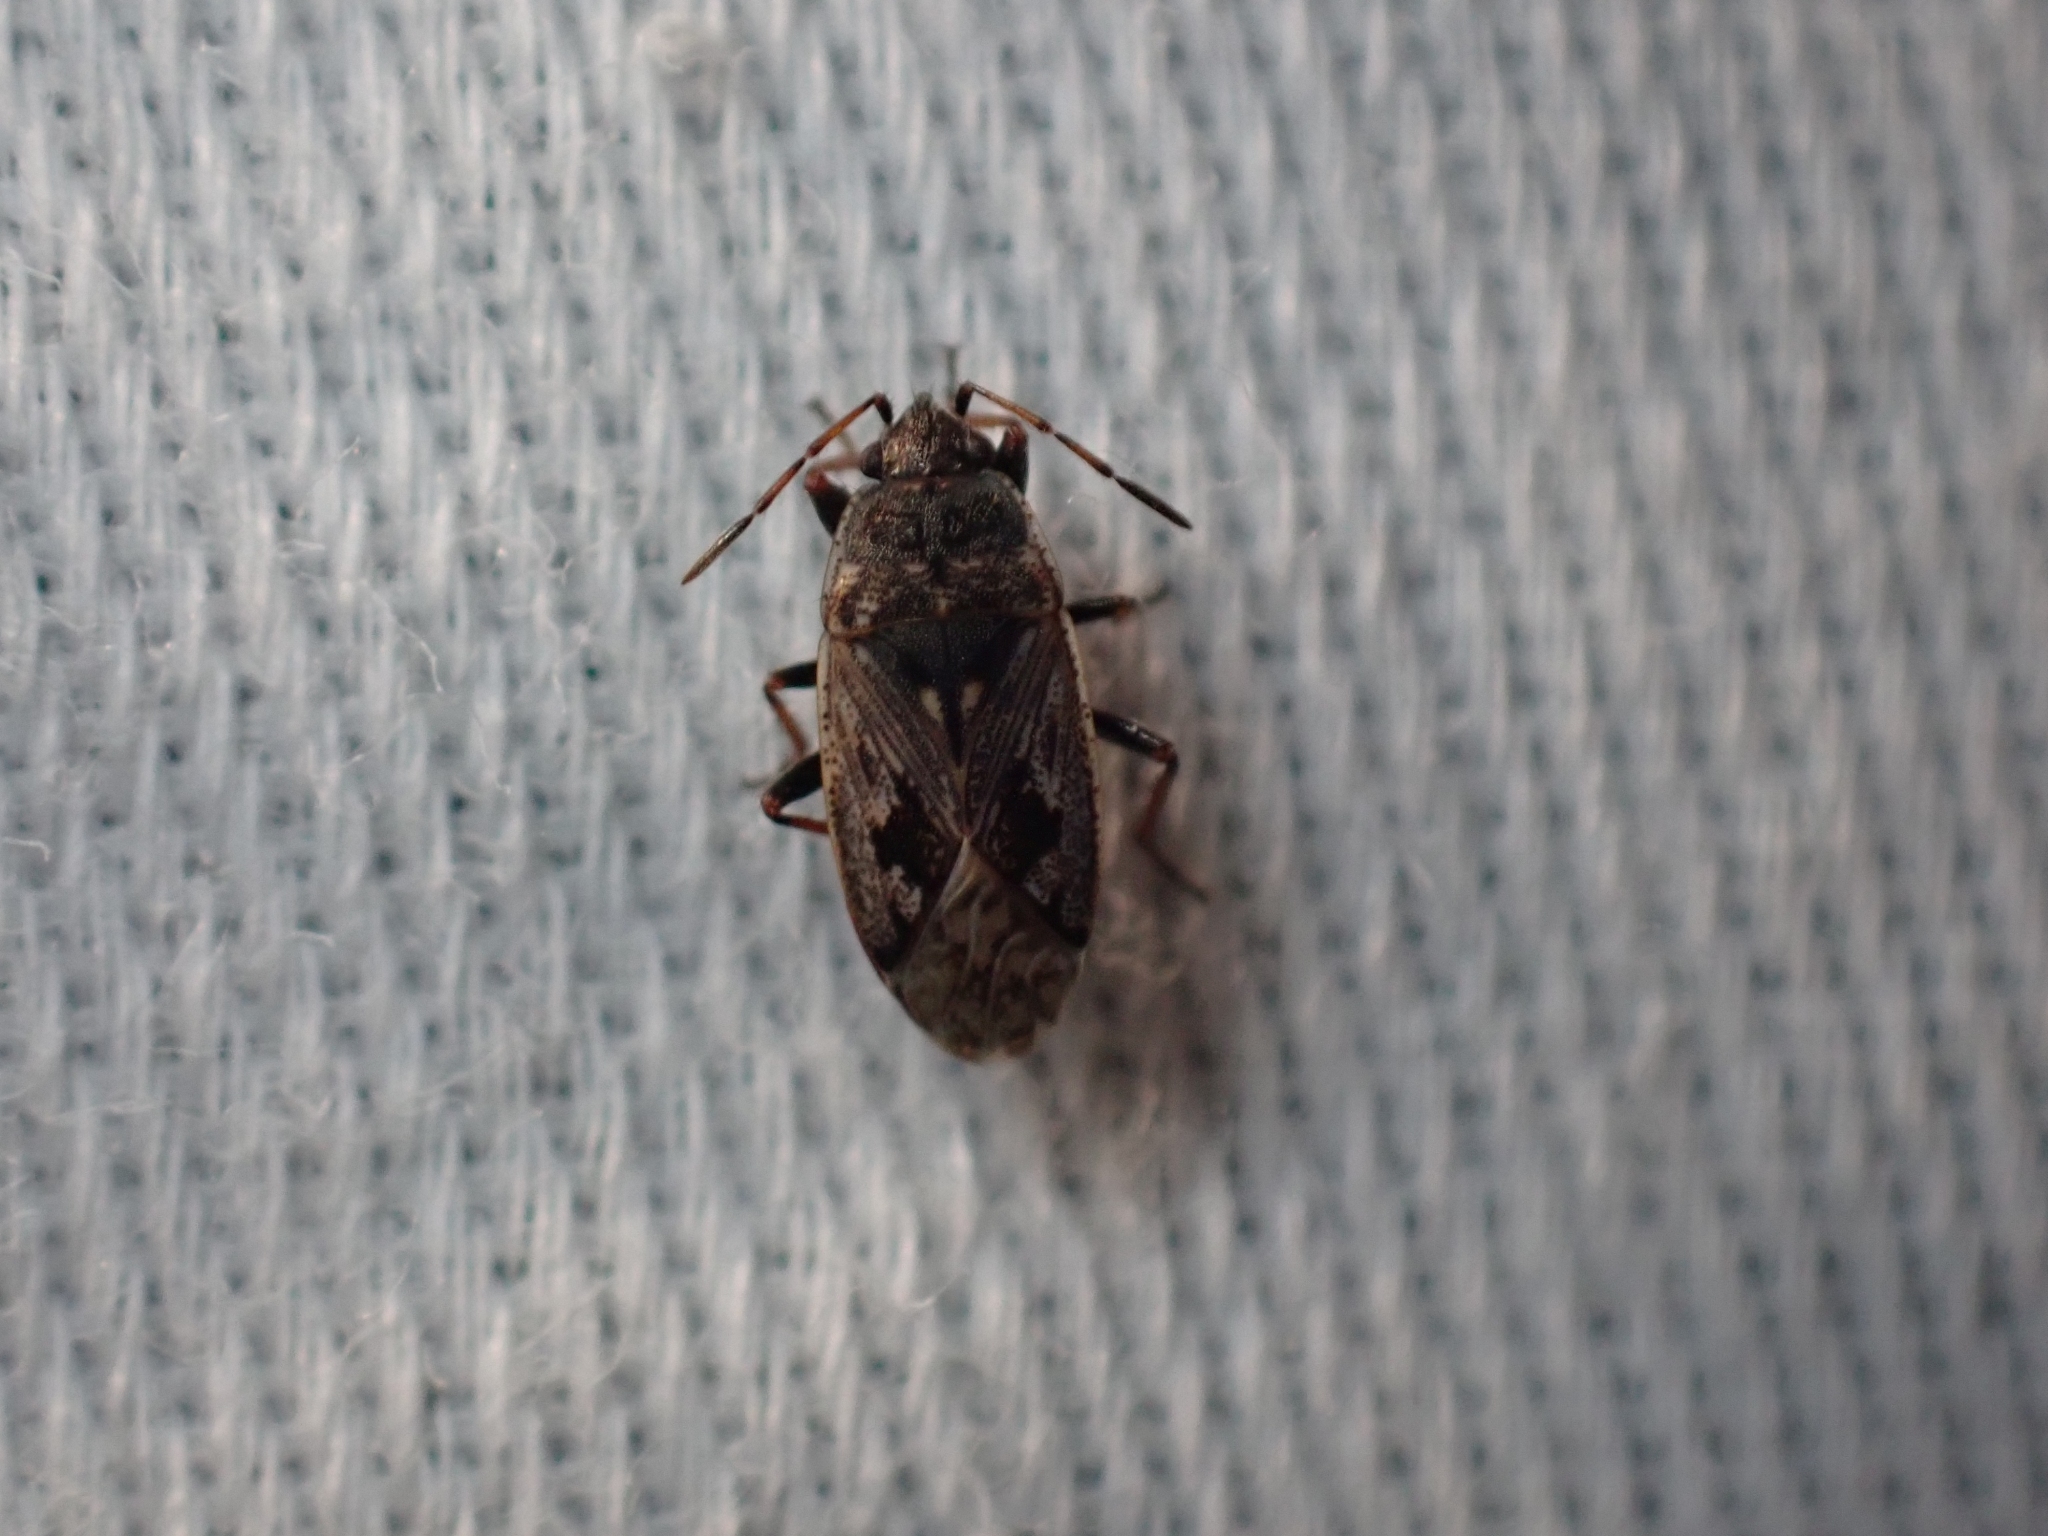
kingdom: Animalia
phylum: Arthropoda
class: Insecta
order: Hemiptera
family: Rhyparochromidae
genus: Sphragisticus
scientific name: Sphragisticus nebulosus
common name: Dirt-colored seed bug
